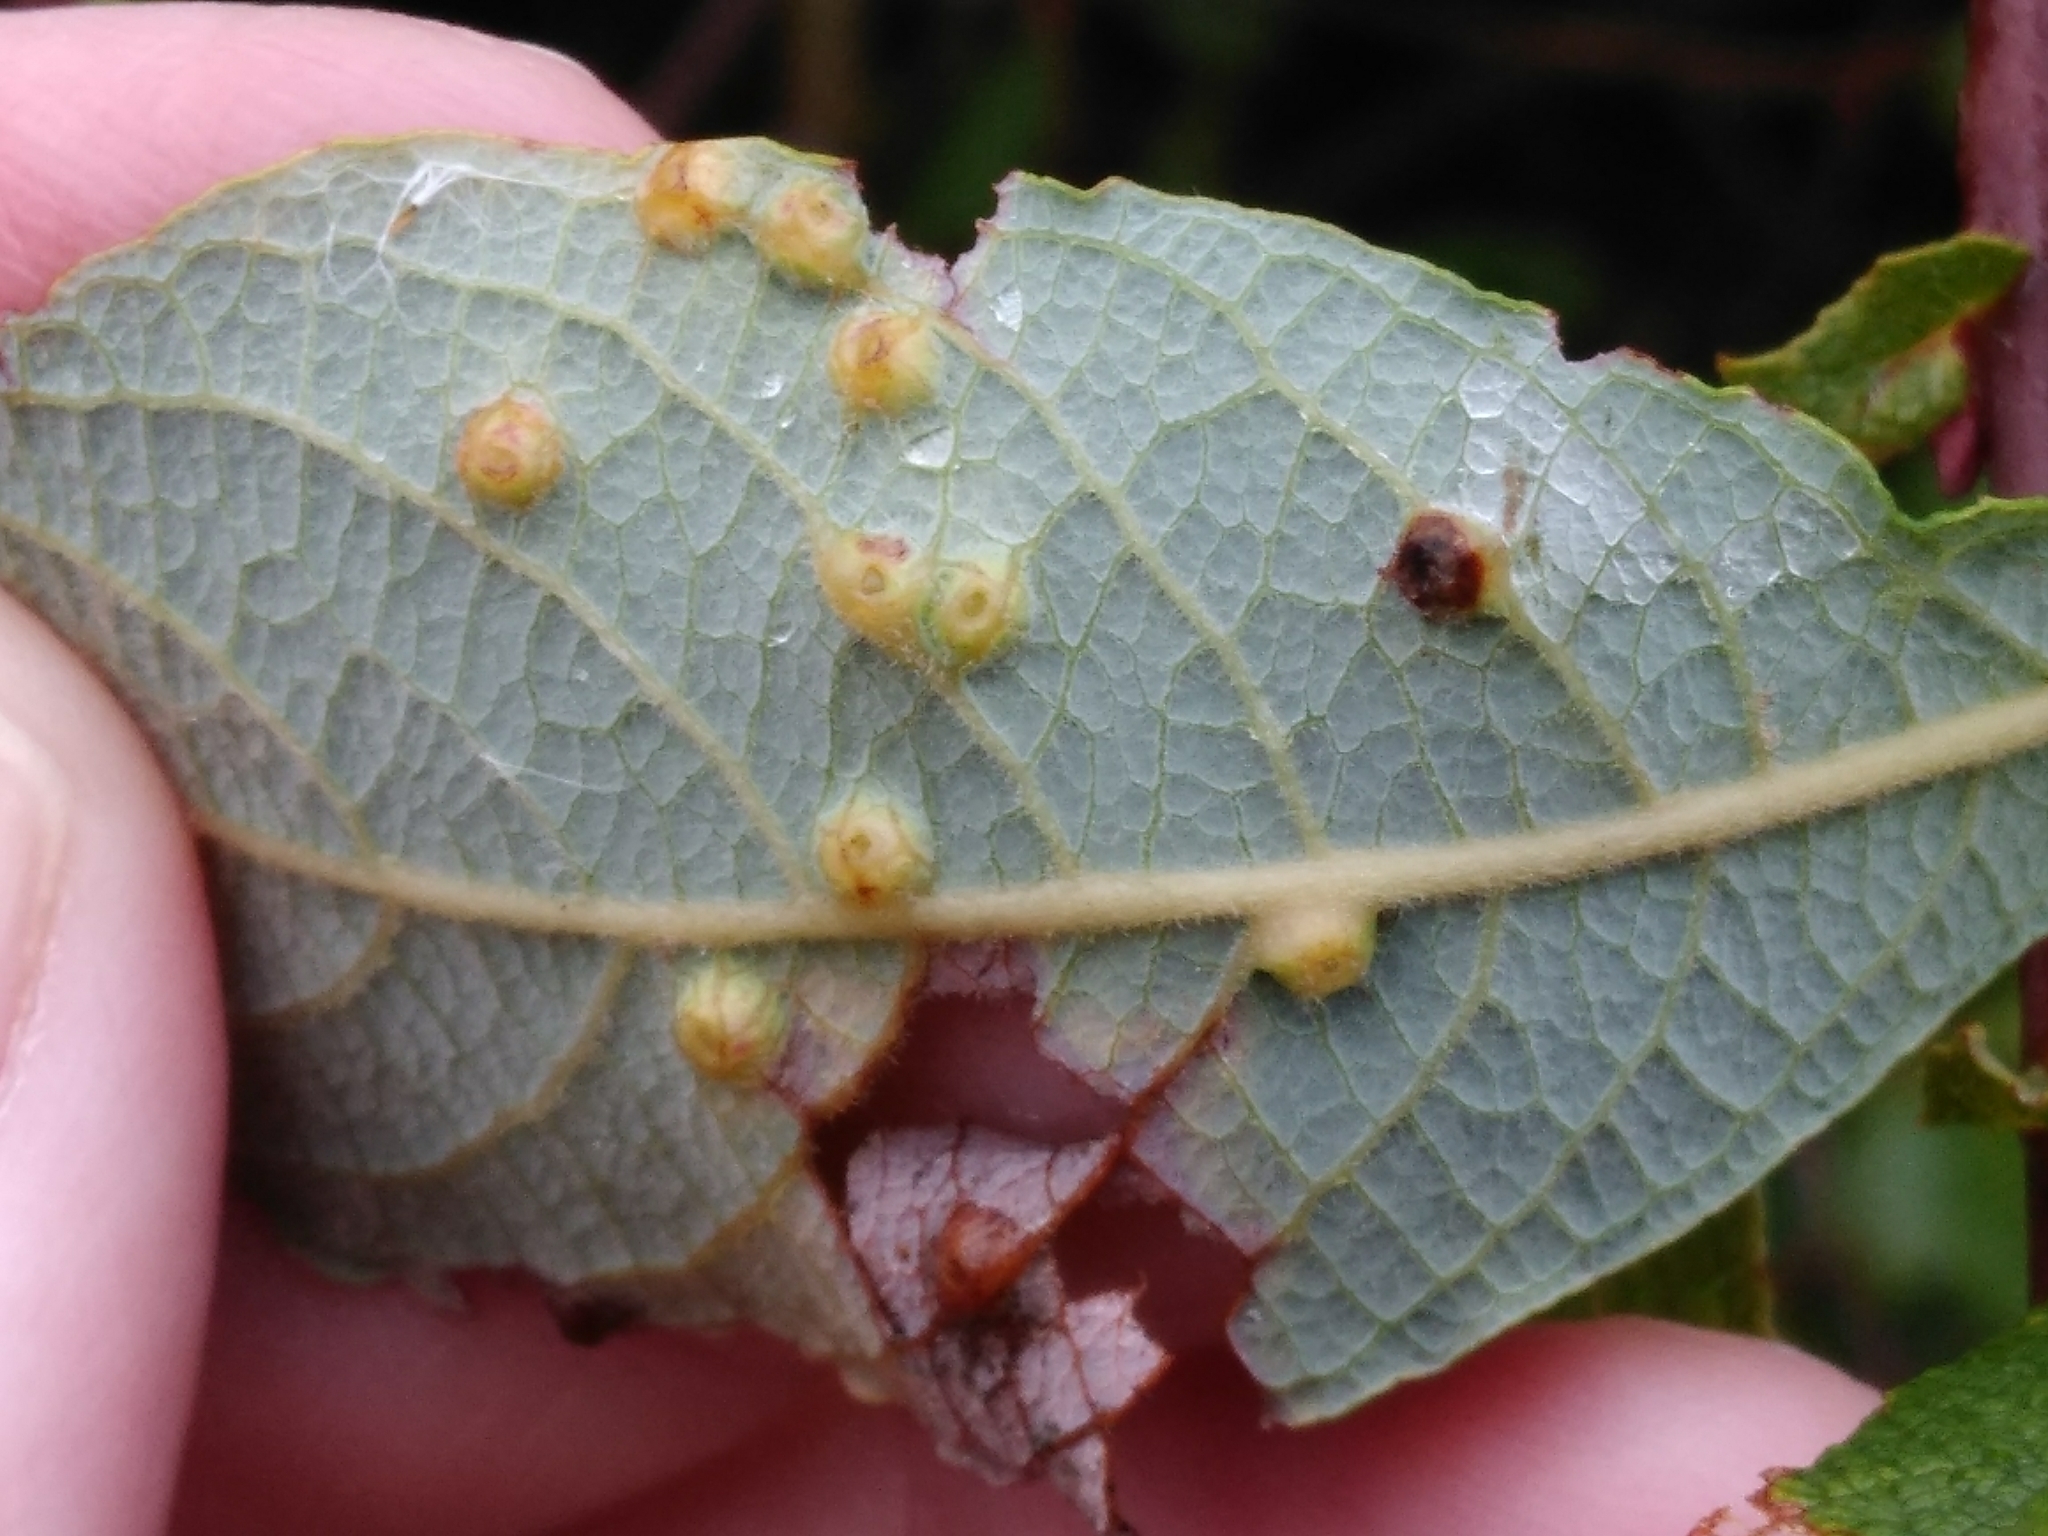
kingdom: Animalia
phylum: Arthropoda
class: Insecta
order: Diptera
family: Cecidomyiidae
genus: Iteomyia
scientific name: Iteomyia capreae
